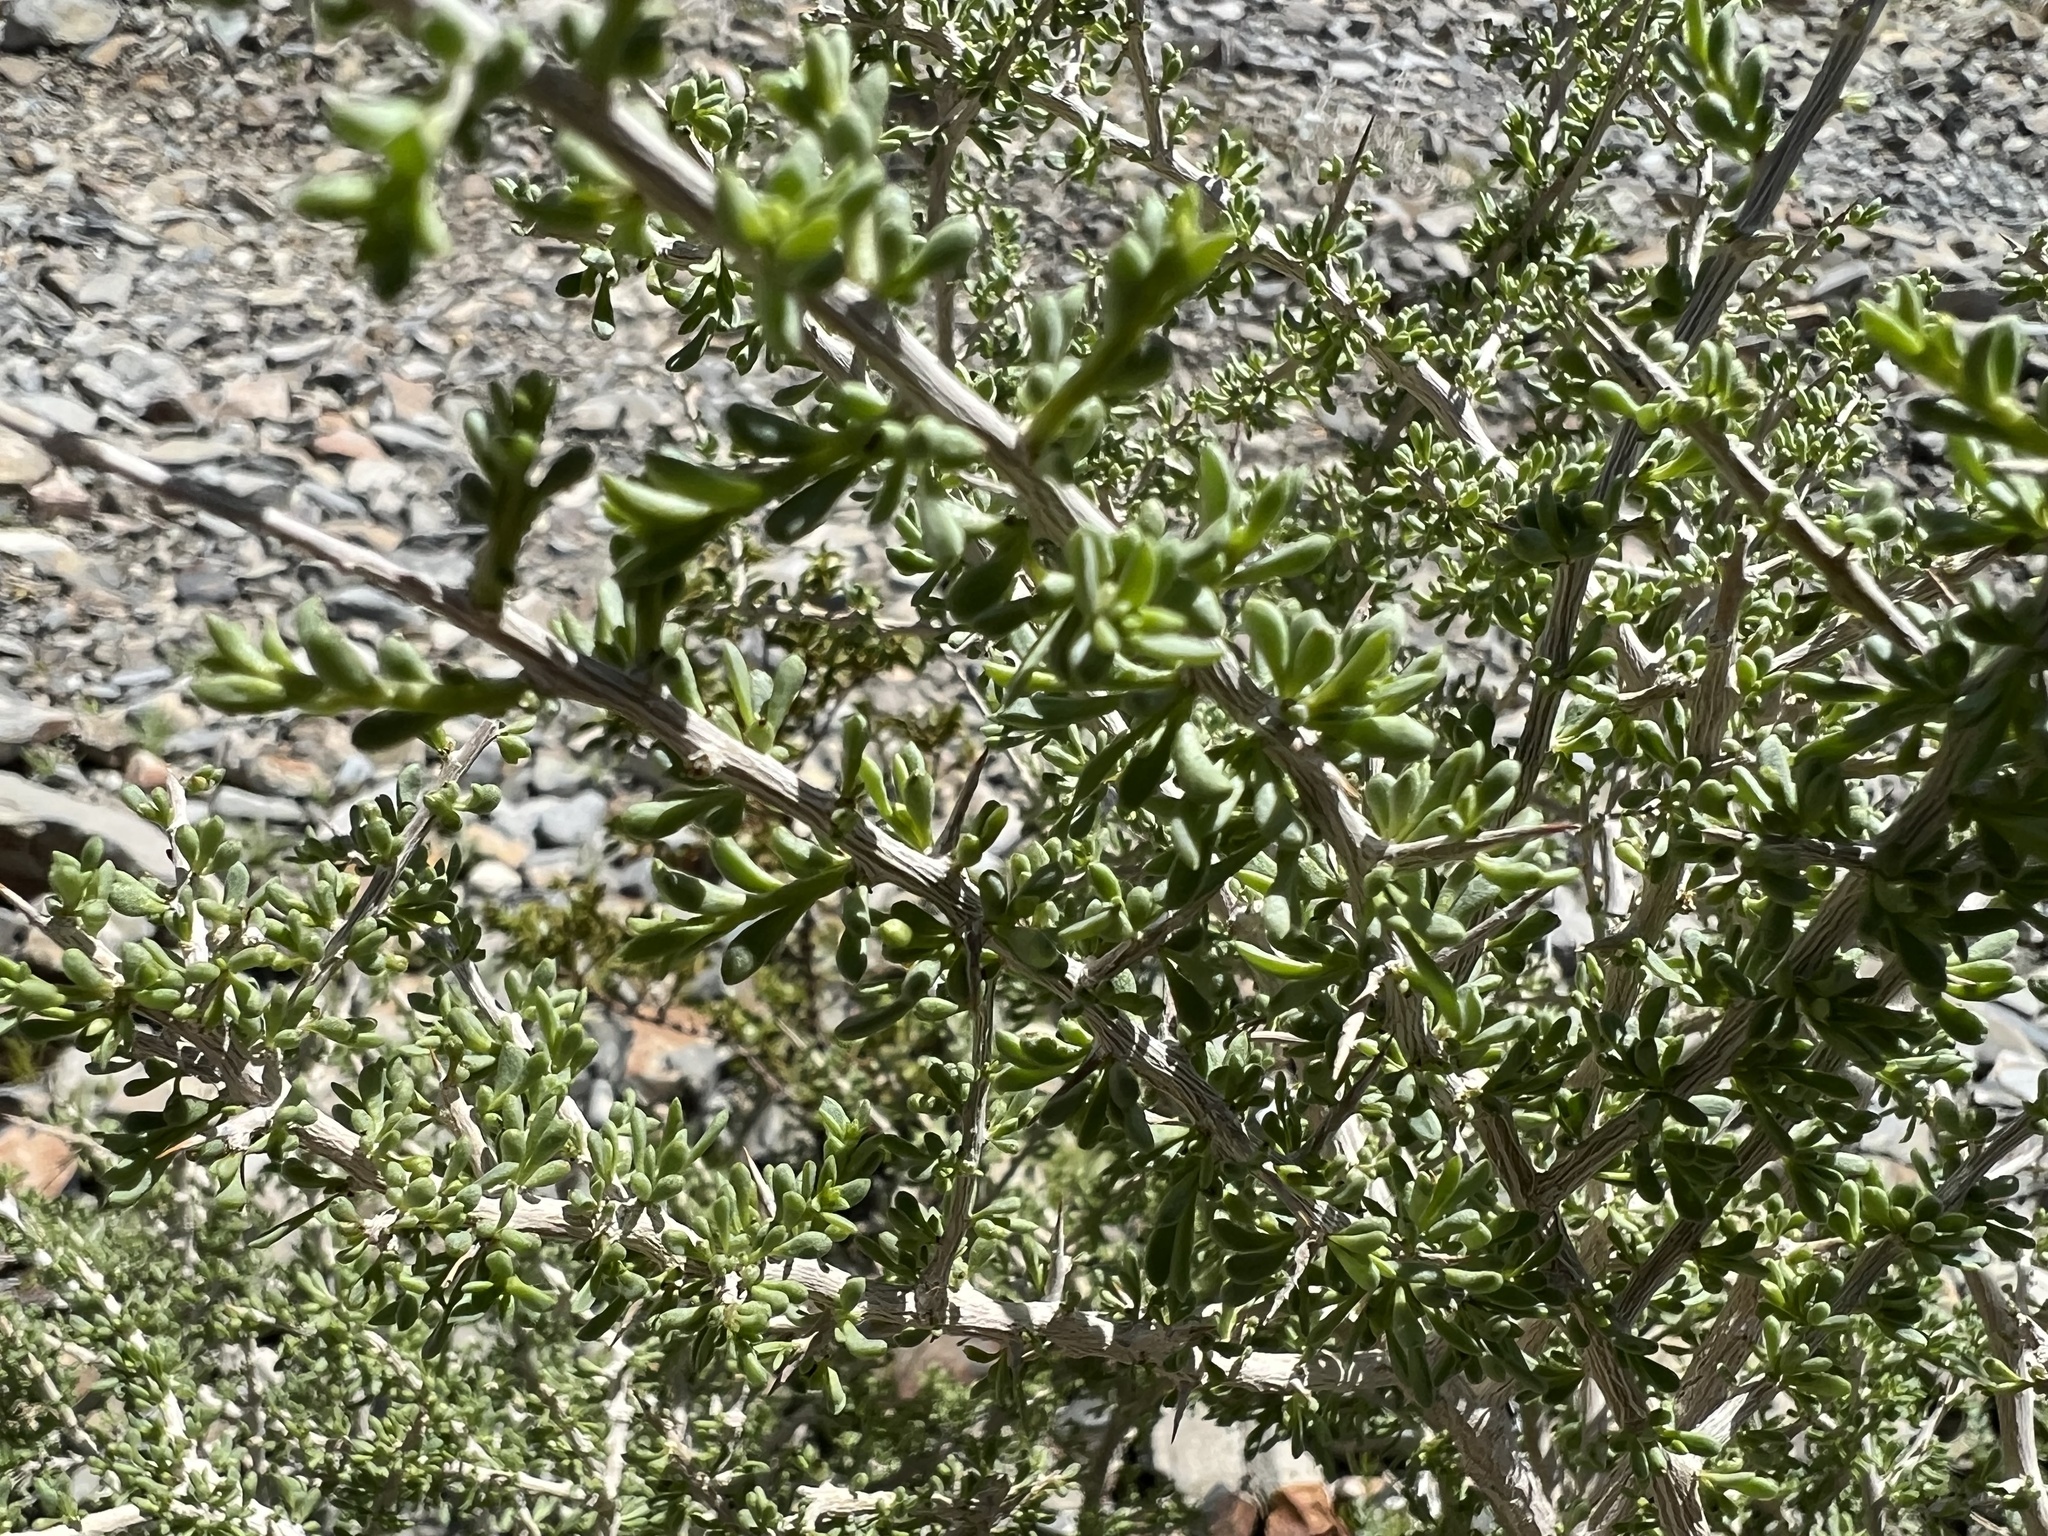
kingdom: Plantae
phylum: Tracheophyta
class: Magnoliopsida
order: Solanales
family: Solanaceae
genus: Lycium
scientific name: Lycium andersonii
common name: Water-jacket
